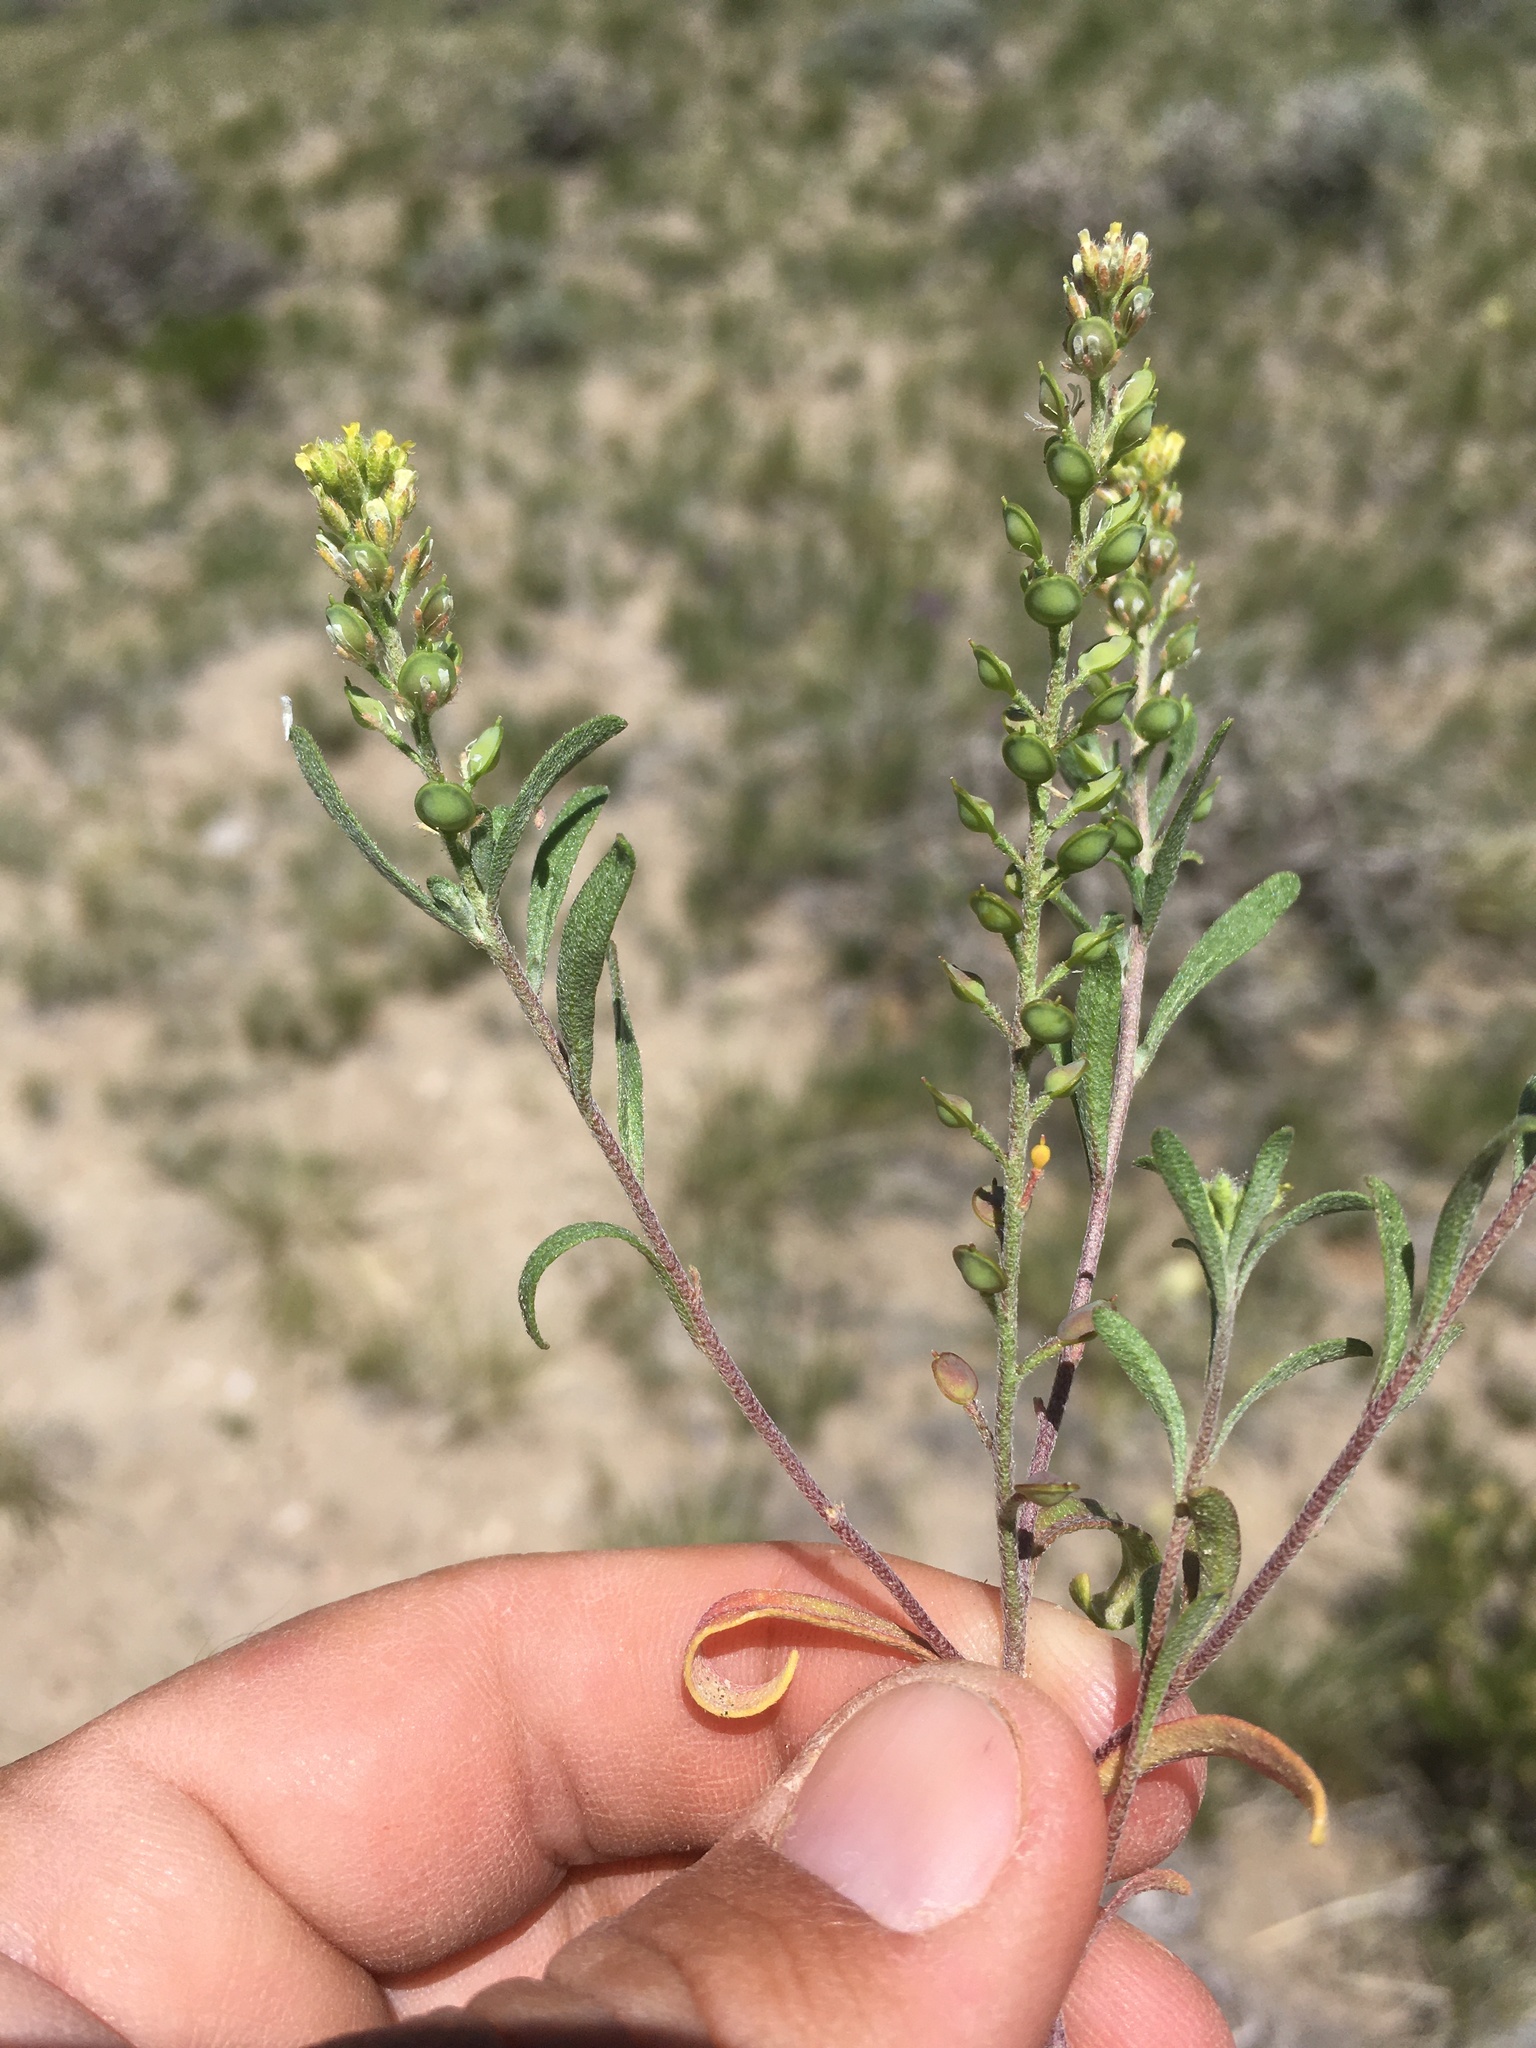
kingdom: Plantae
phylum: Tracheophyta
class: Magnoliopsida
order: Brassicales
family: Brassicaceae
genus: Alyssum
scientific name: Alyssum turkestanicum
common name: Desert alyssum
